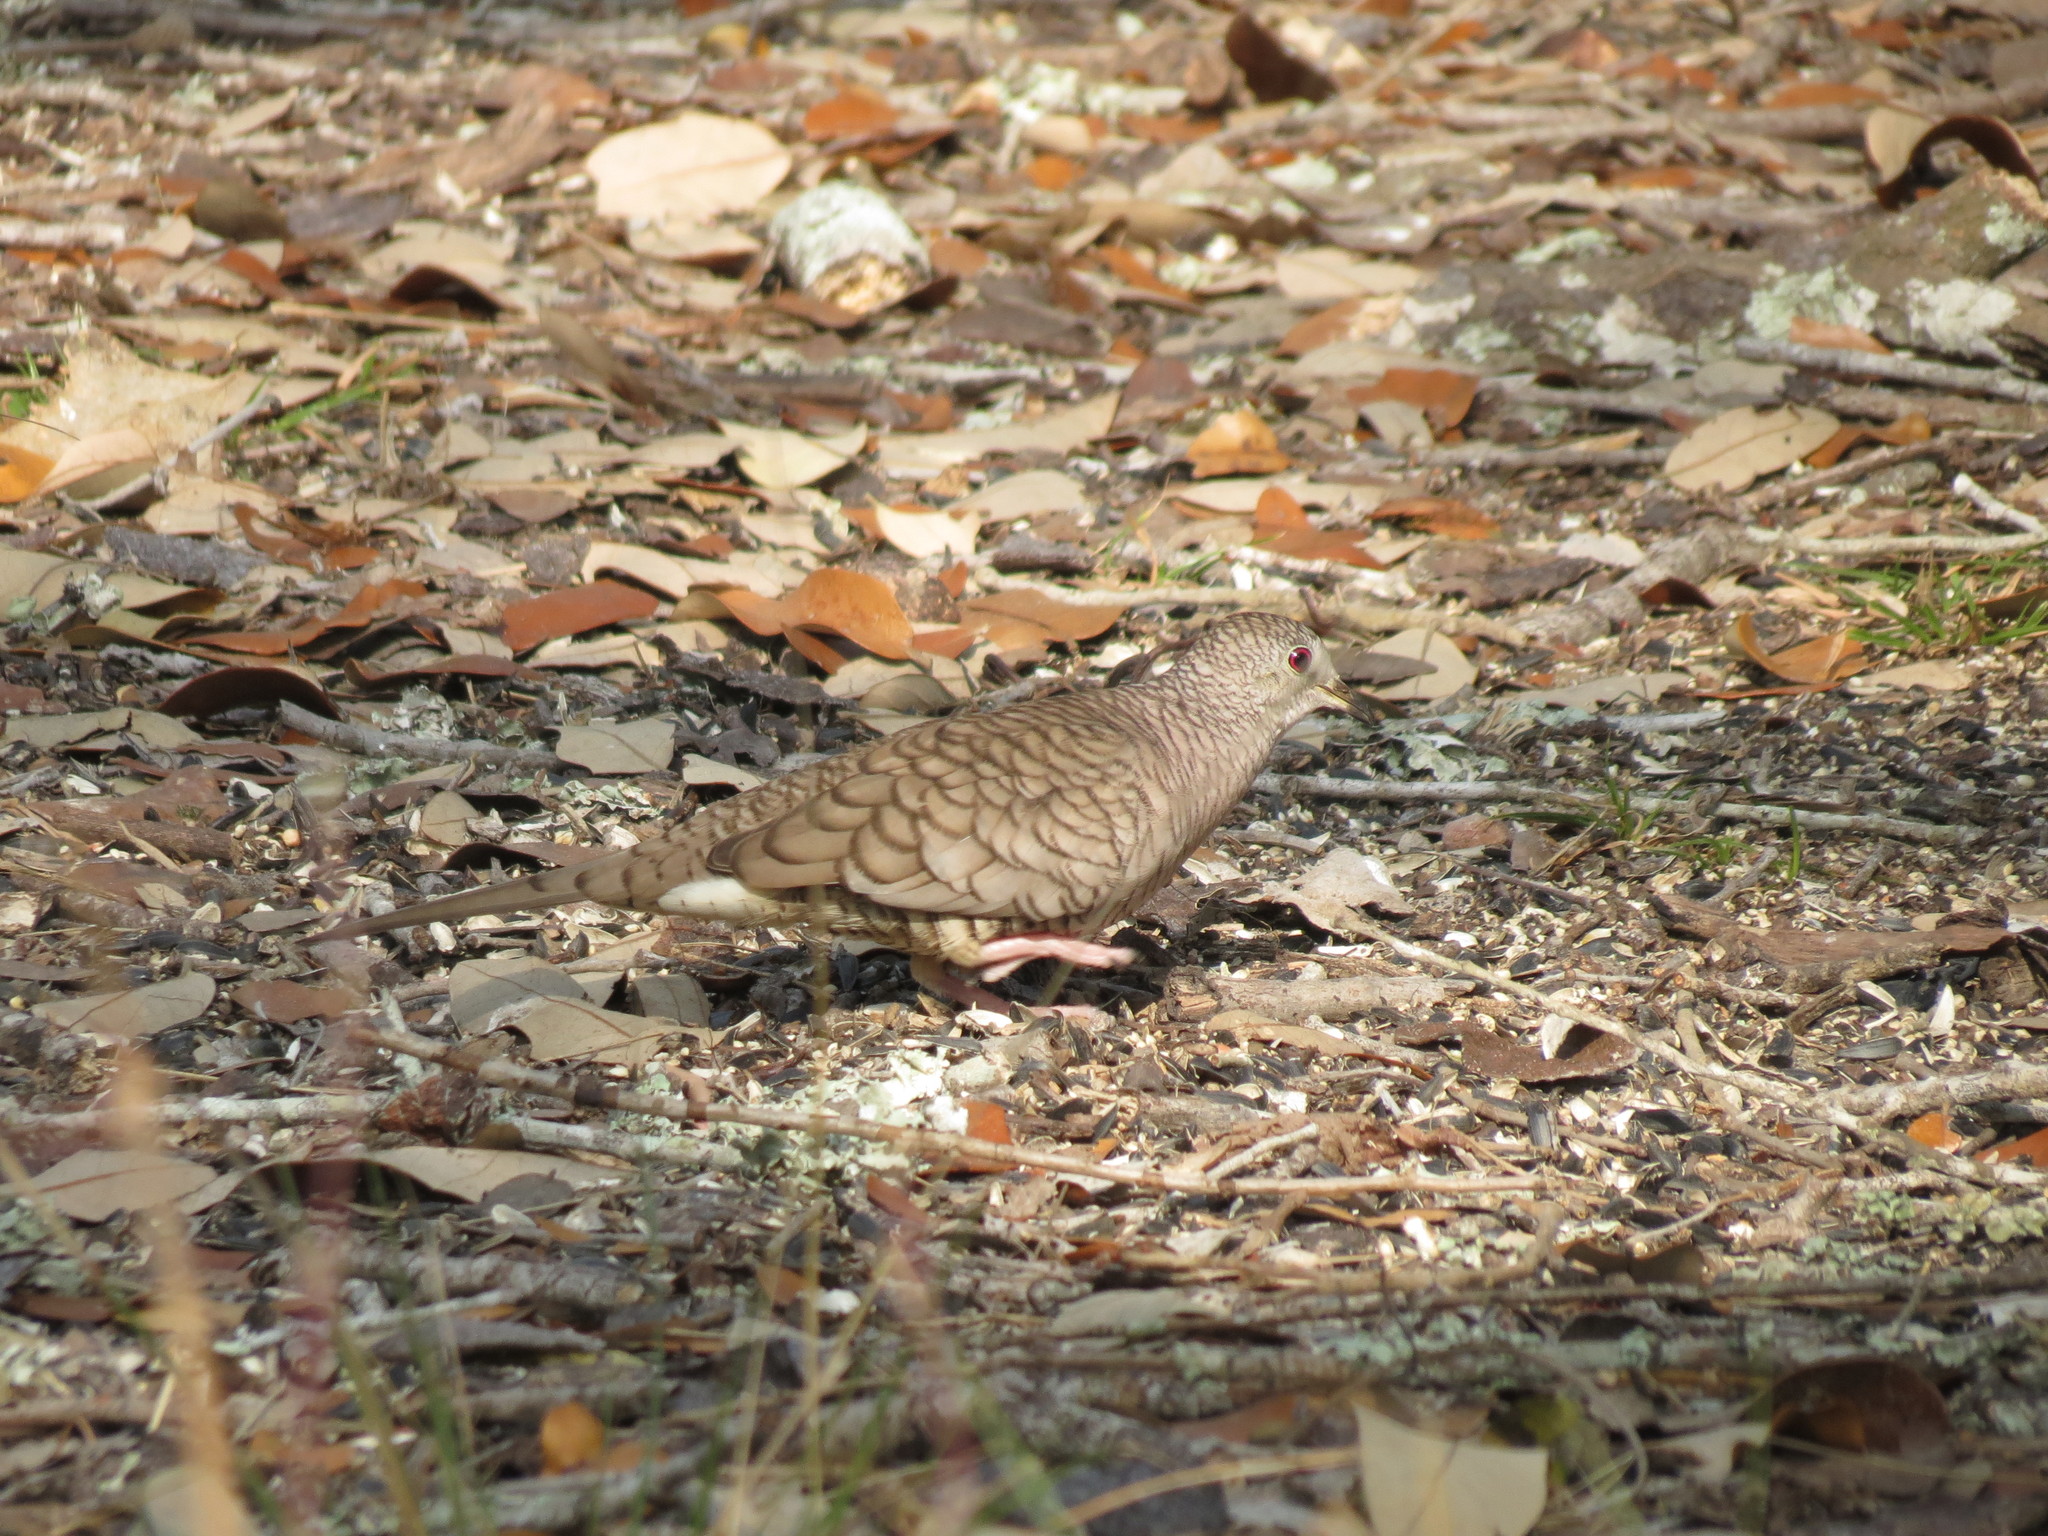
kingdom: Animalia
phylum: Chordata
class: Aves
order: Columbiformes
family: Columbidae
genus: Columbina
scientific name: Columbina inca
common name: Inca dove
